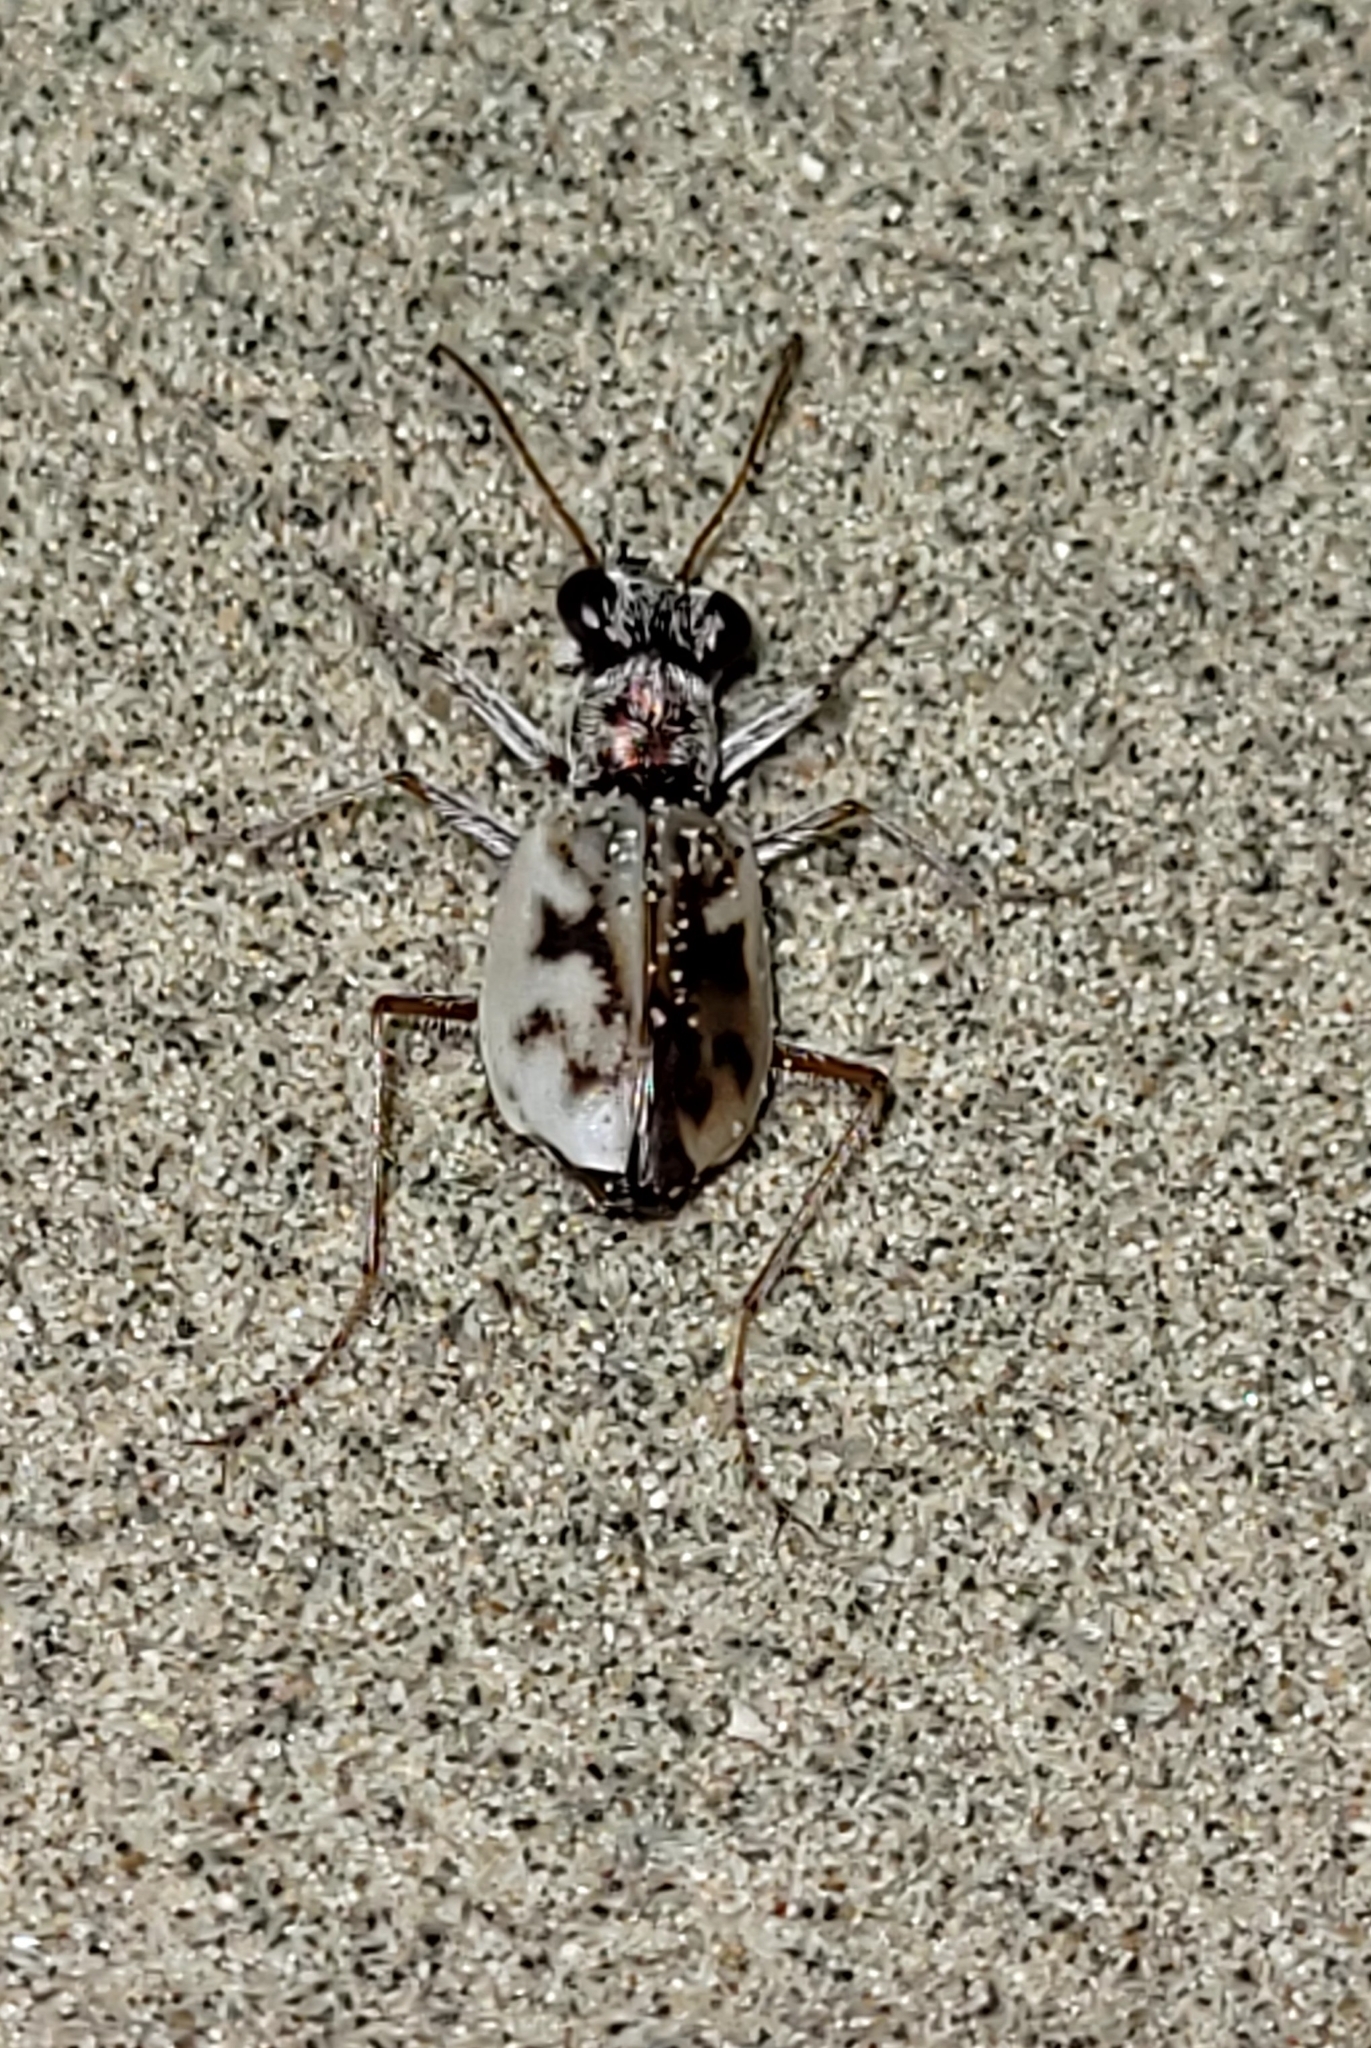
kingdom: Animalia
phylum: Arthropoda
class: Insecta
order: Coleoptera
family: Carabidae
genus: Ellipsoptera
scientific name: Ellipsoptera lepida
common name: Ghost tiger beetle
